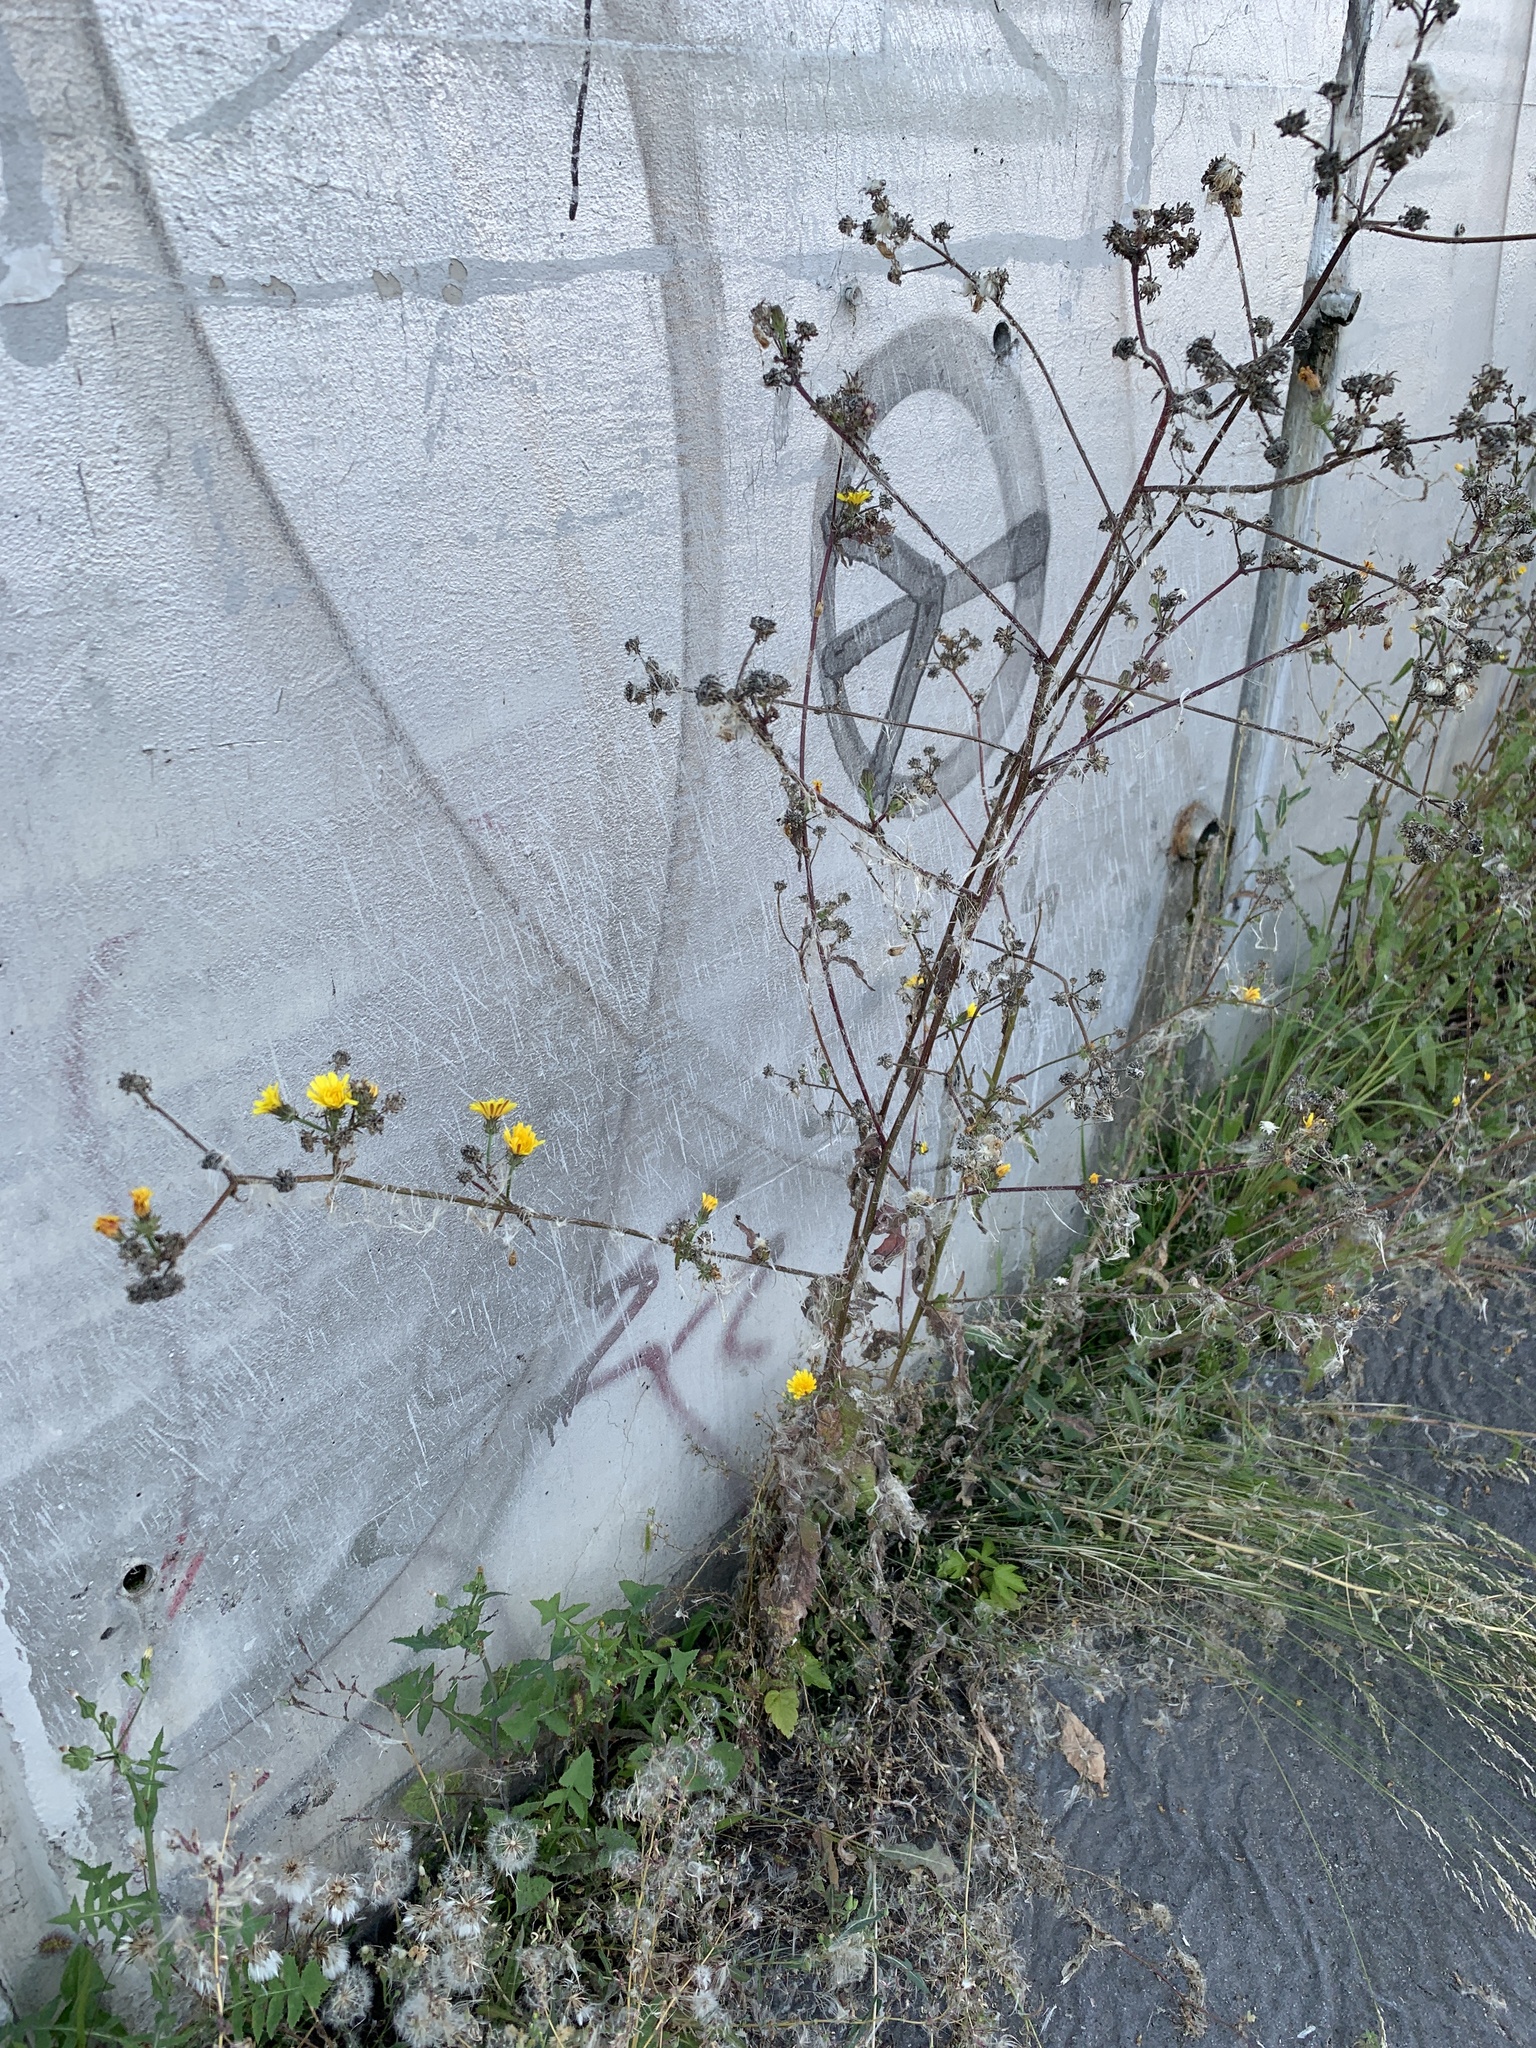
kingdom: Plantae
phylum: Tracheophyta
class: Magnoliopsida
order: Asterales
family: Asteraceae
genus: Picris
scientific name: Picris hieracioides
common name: Hawkweed oxtongue
